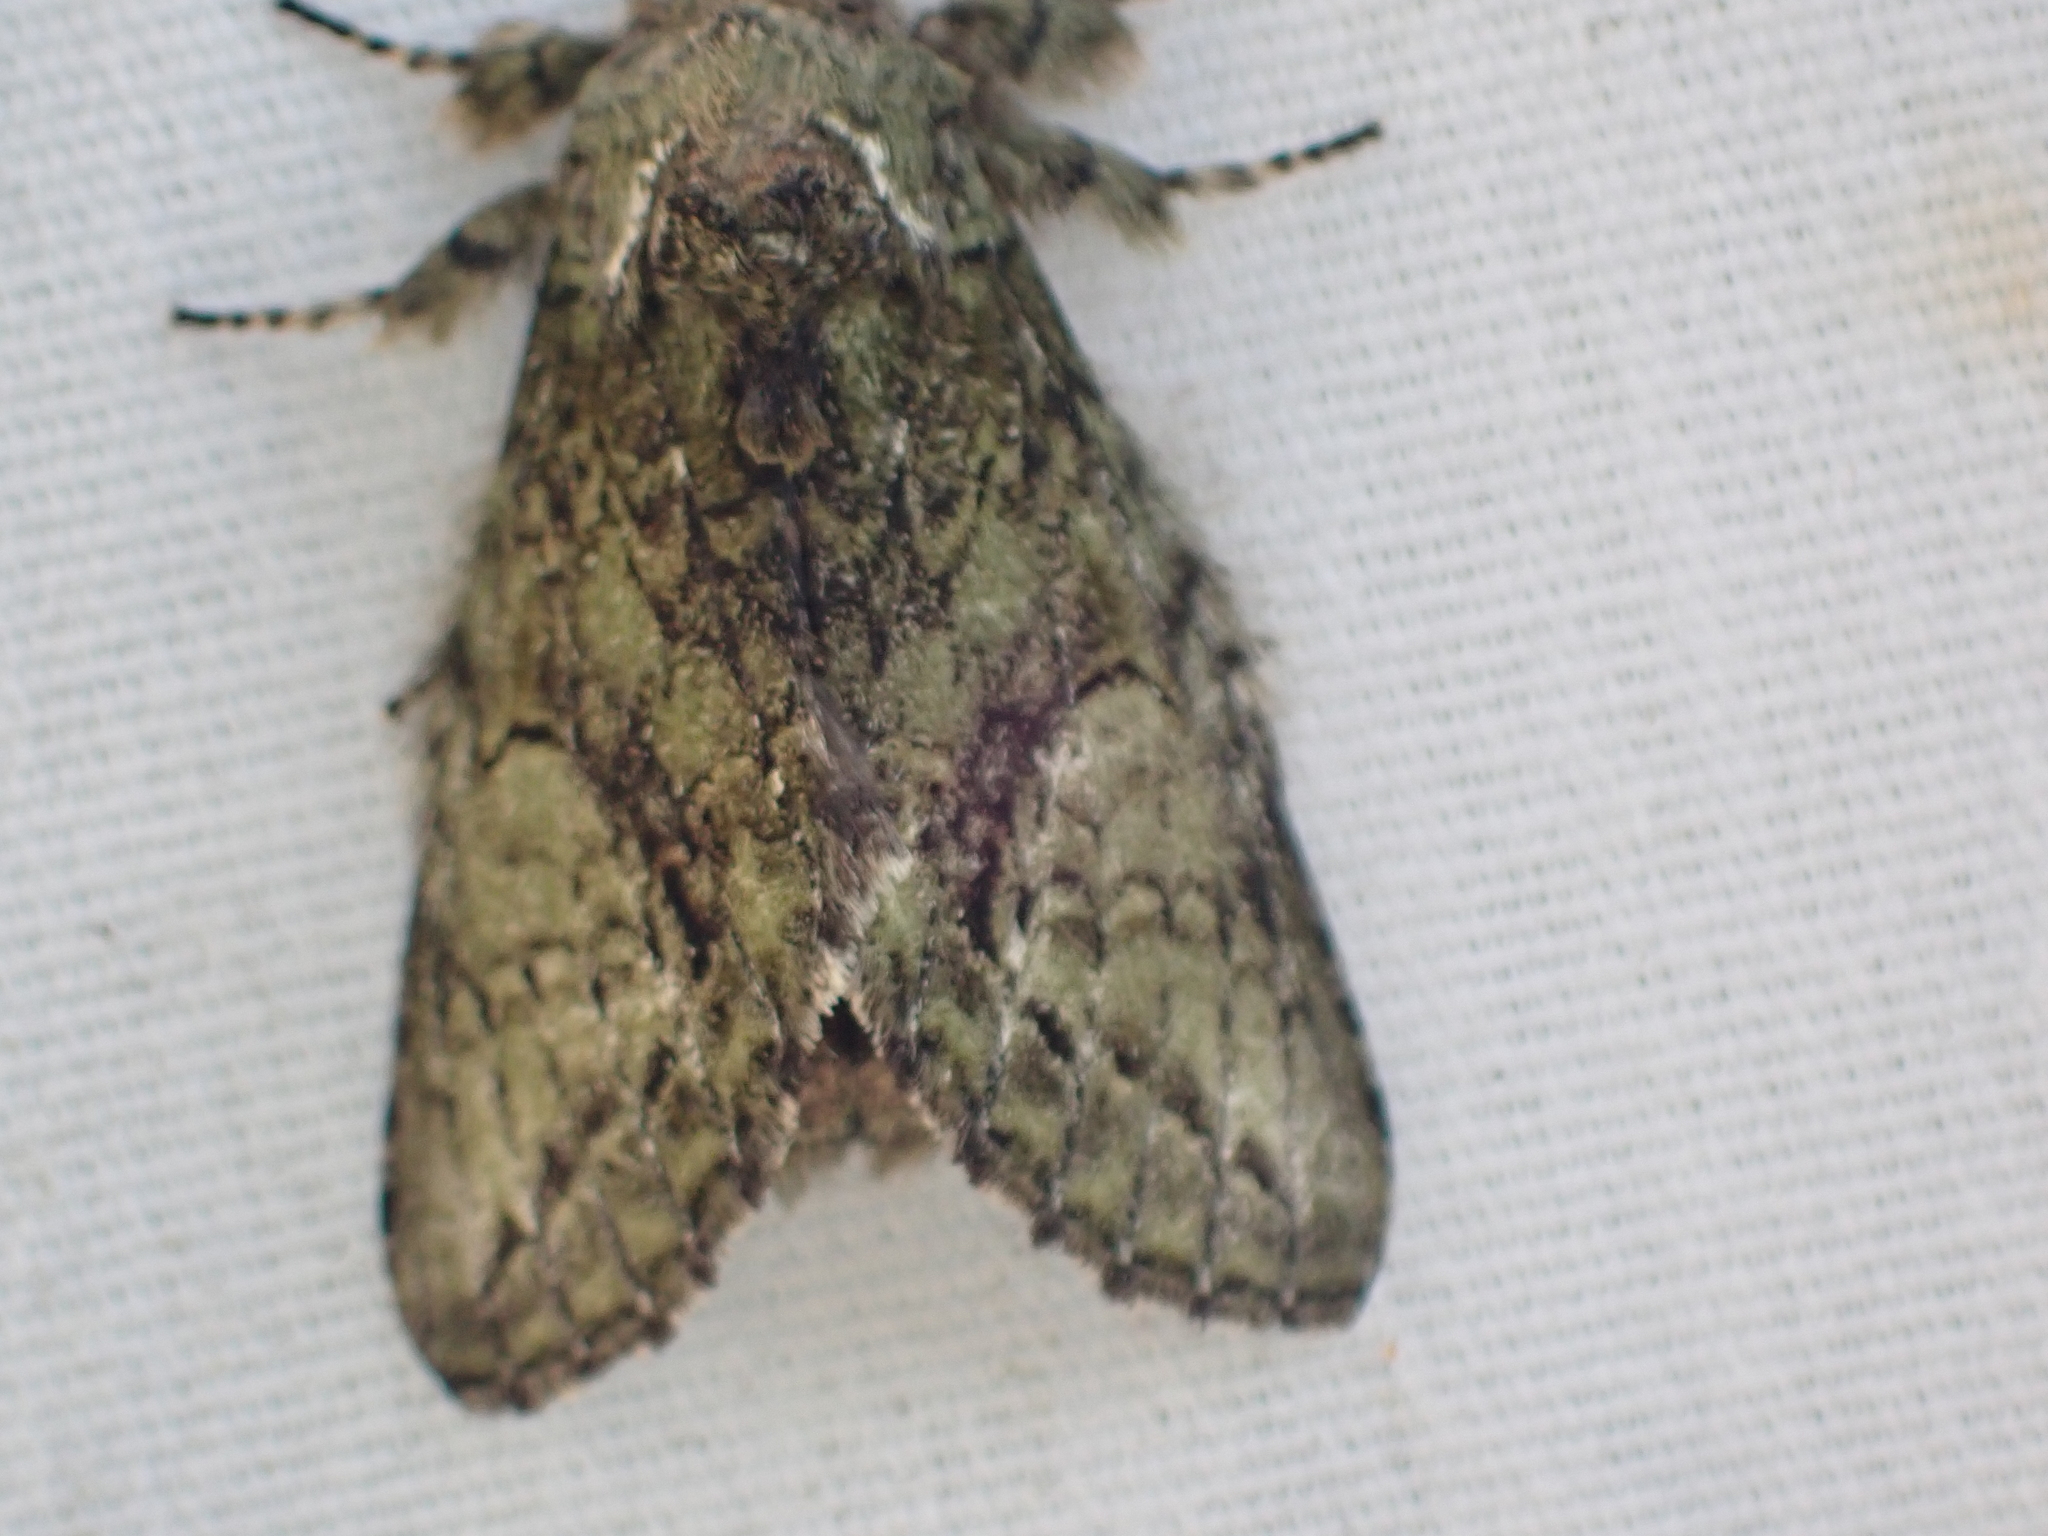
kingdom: Animalia
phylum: Arthropoda
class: Insecta
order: Lepidoptera
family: Notodontidae
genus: Heterocampa
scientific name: Heterocampa
